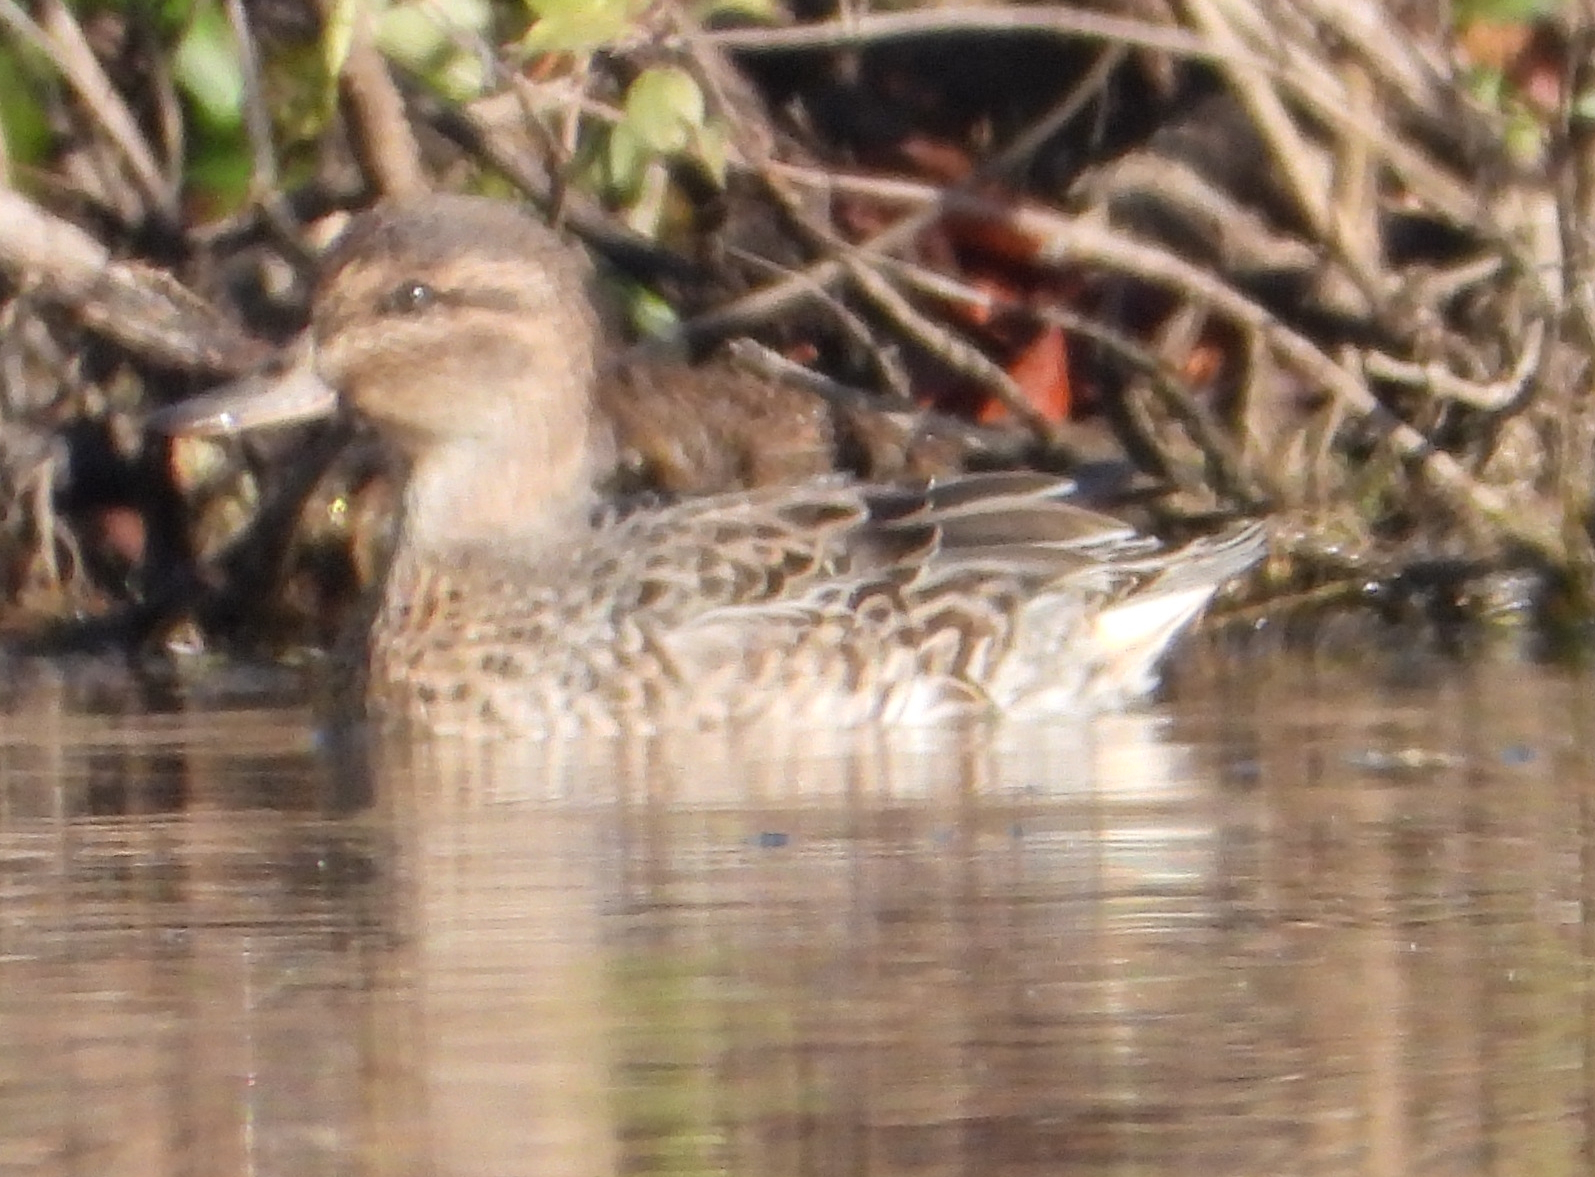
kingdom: Animalia
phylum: Chordata
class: Aves
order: Anseriformes
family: Anatidae
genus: Anas
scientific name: Anas crecca
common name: Eurasian teal
